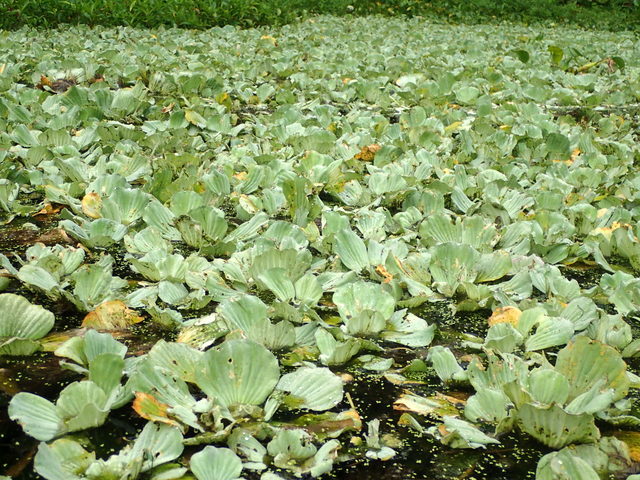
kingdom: Plantae
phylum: Tracheophyta
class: Liliopsida
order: Alismatales
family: Araceae
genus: Pistia
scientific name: Pistia stratiotes
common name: Water lettuce
